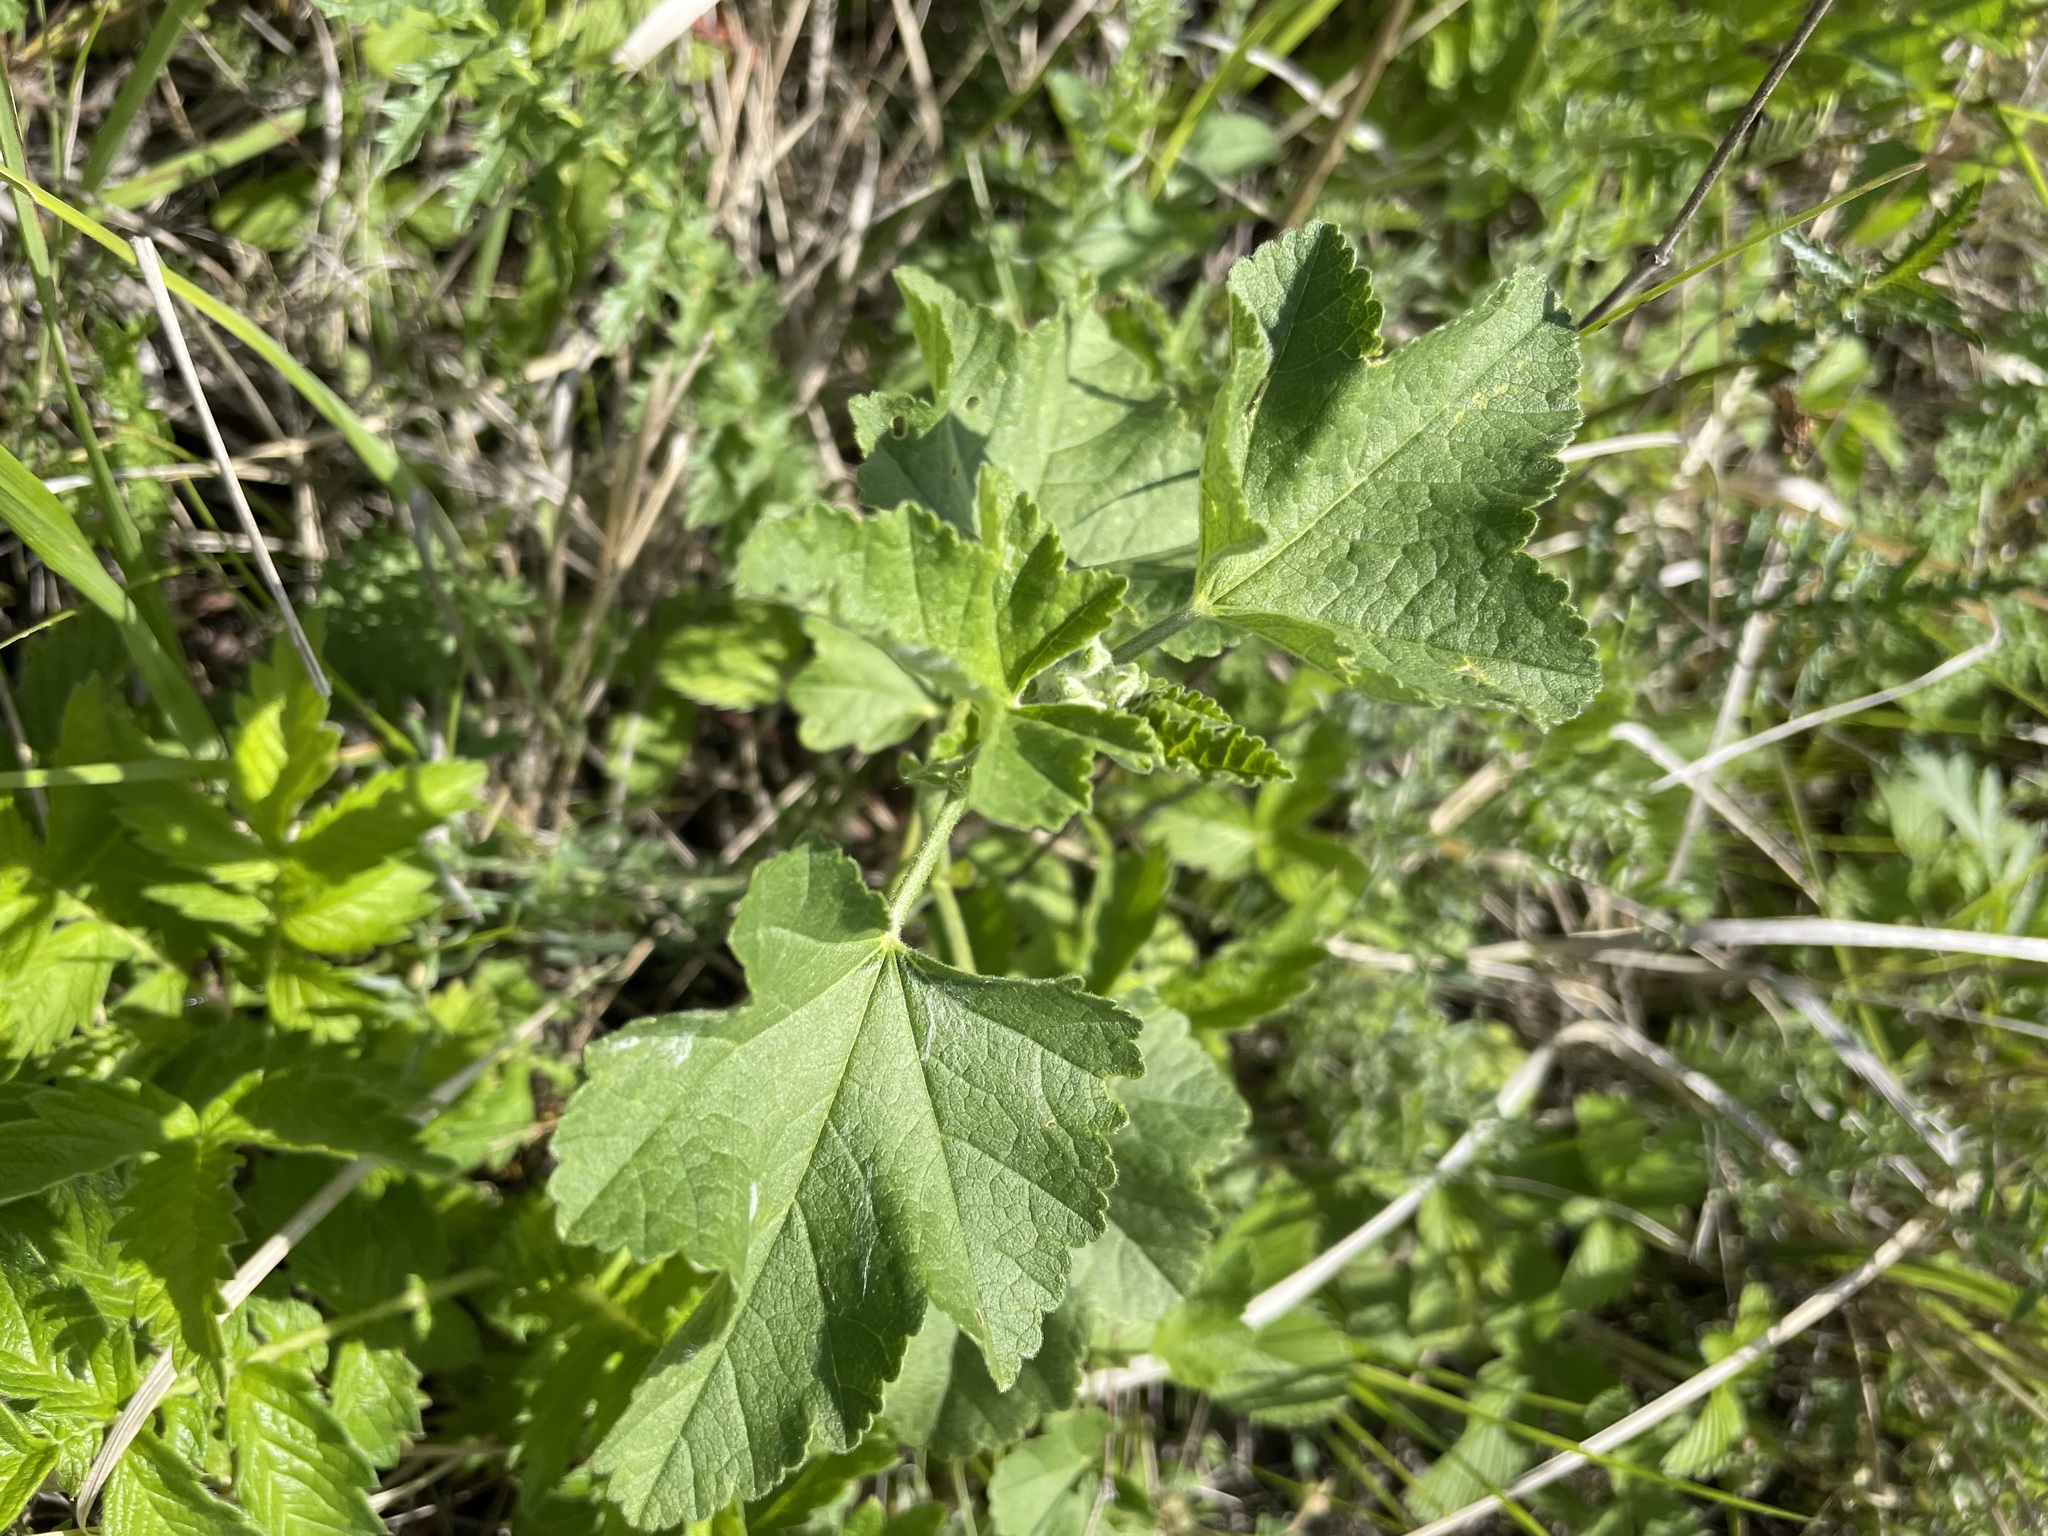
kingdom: Plantae
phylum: Tracheophyta
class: Magnoliopsida
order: Malvales
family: Malvaceae
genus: Malva
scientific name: Malva thuringiaca
